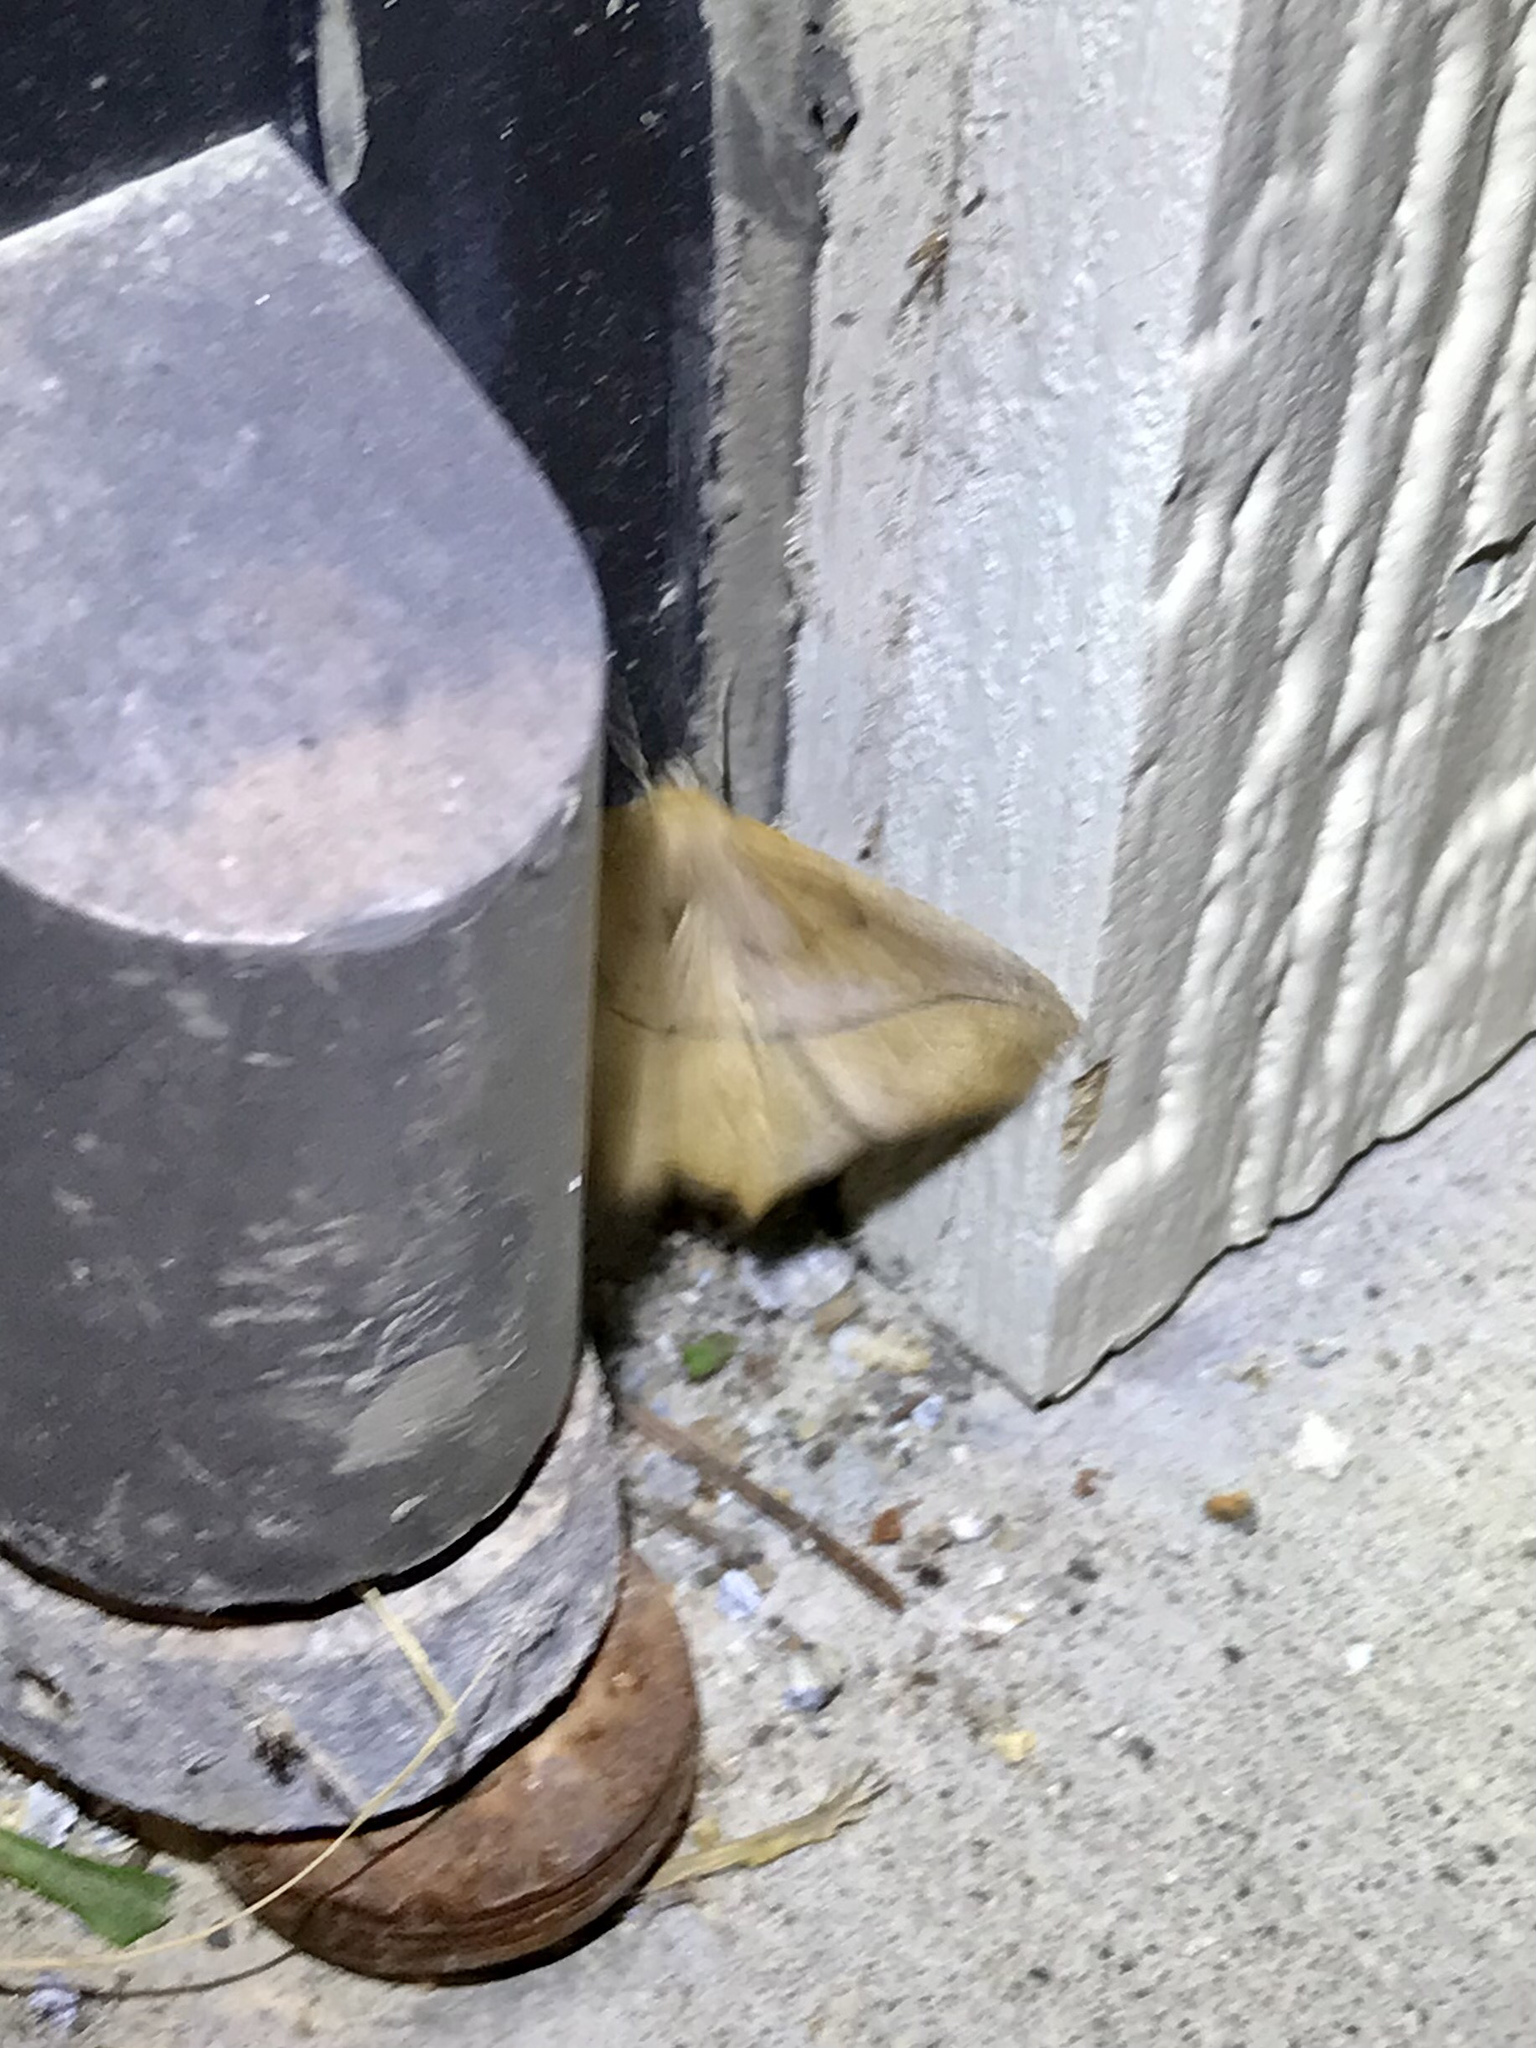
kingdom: Animalia
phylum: Arthropoda
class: Insecta
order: Lepidoptera
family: Geometridae
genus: Prochoerodes
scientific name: Prochoerodes lineola
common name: Large maple spanworm
